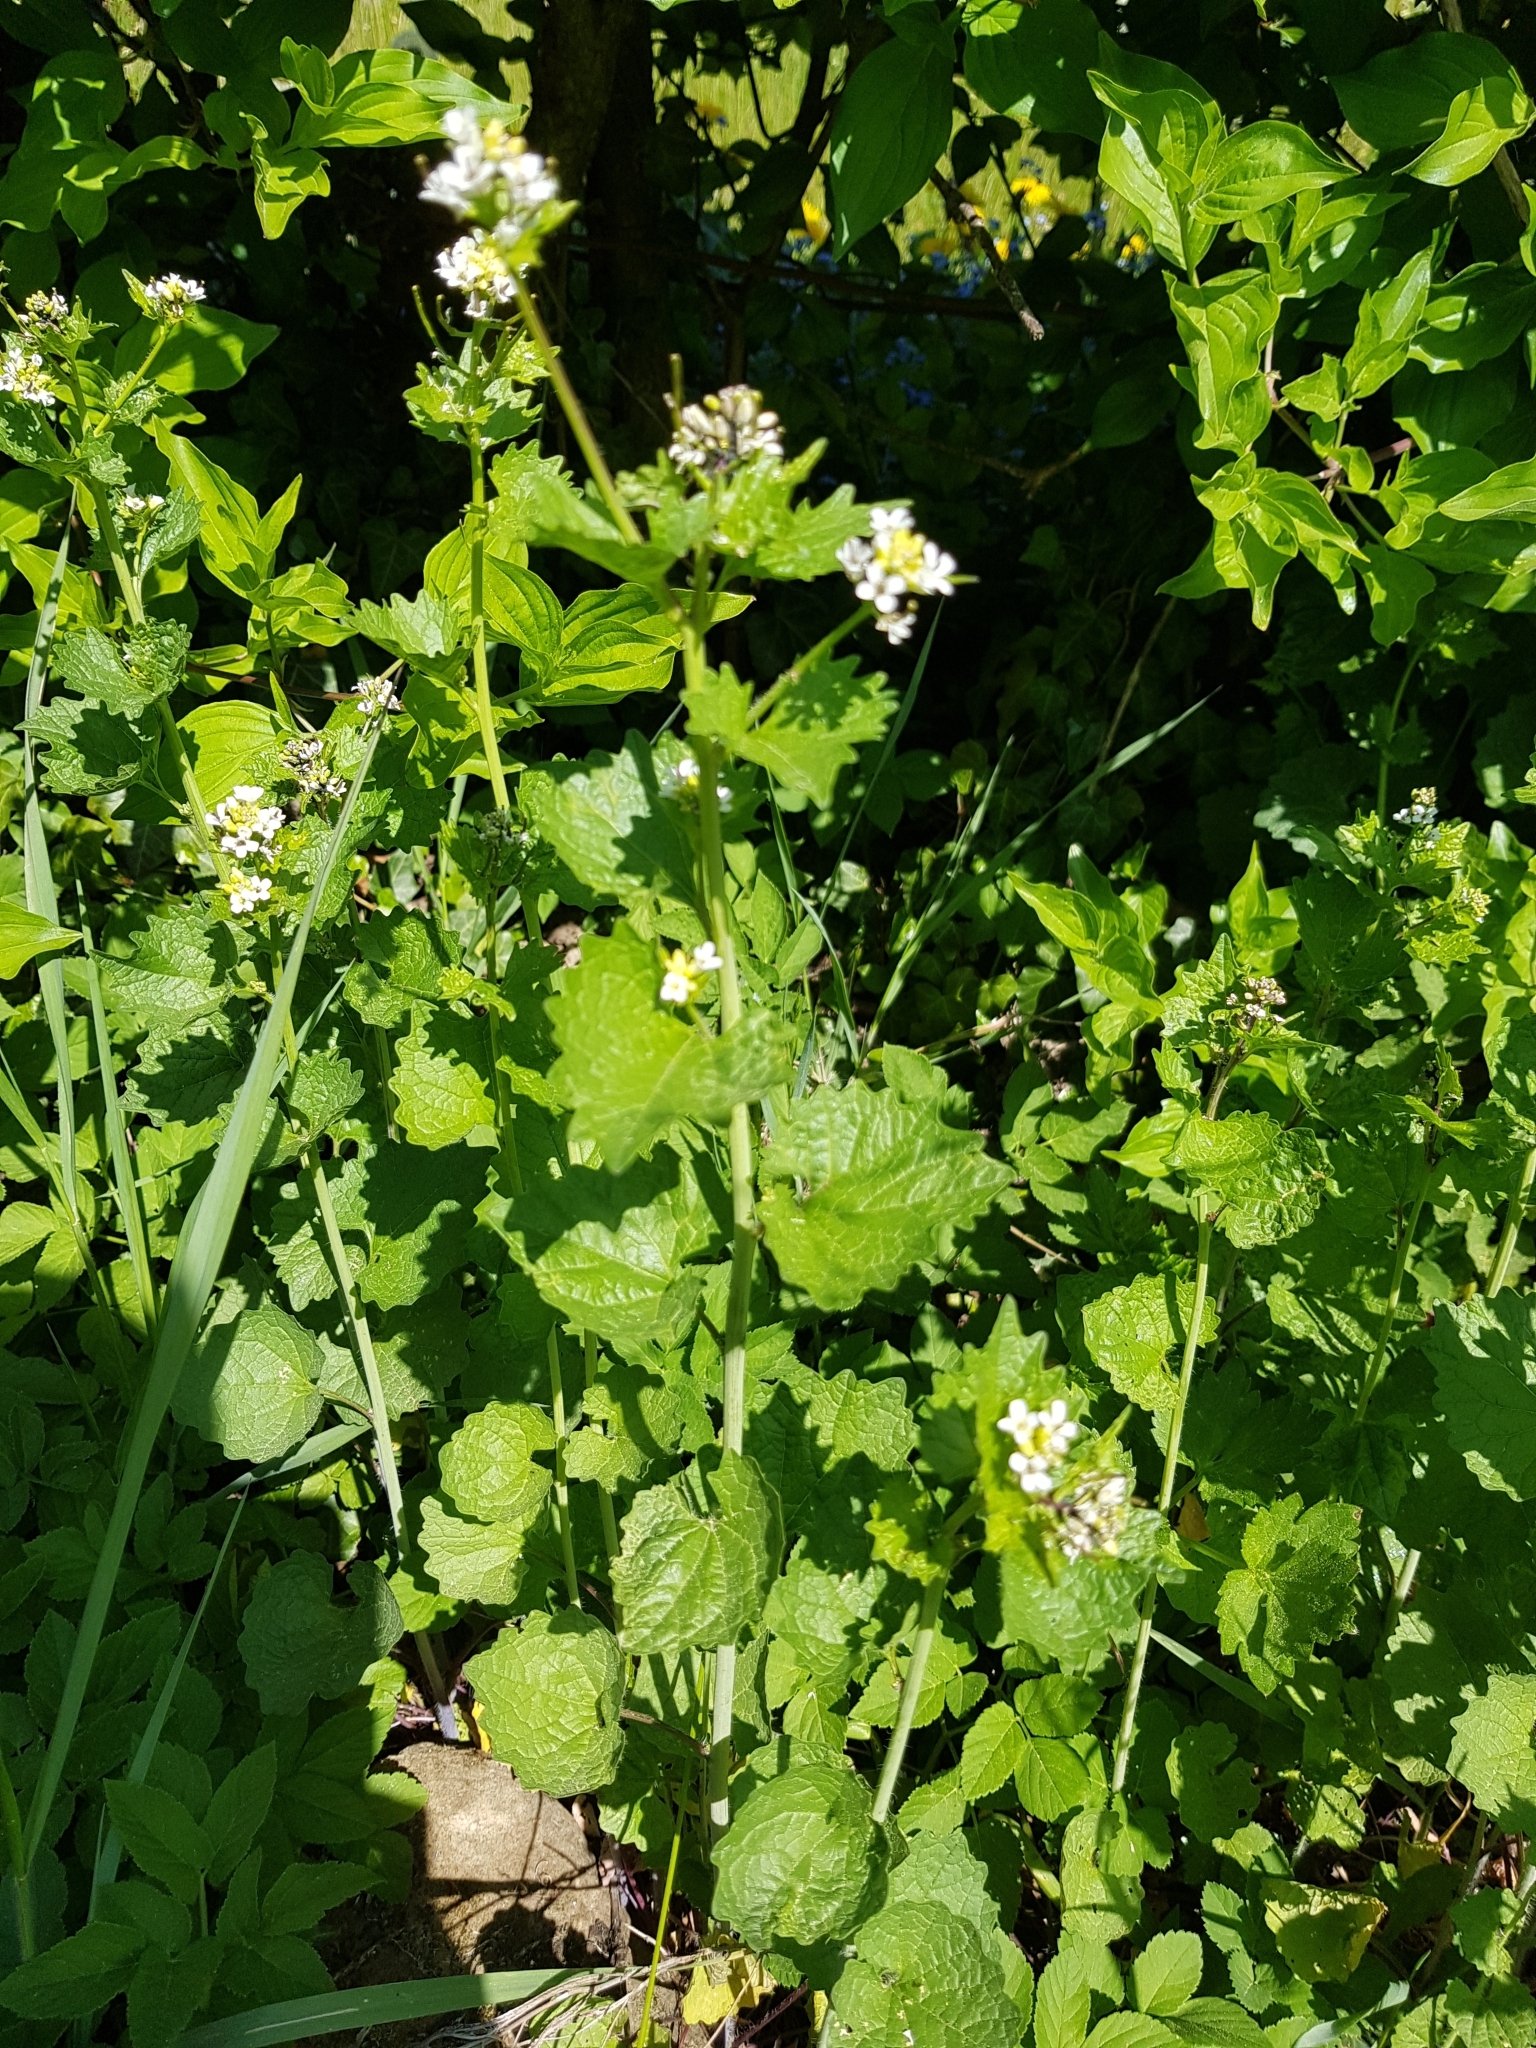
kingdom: Plantae
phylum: Tracheophyta
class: Magnoliopsida
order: Brassicales
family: Brassicaceae
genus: Alliaria
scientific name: Alliaria petiolata
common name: Garlic mustard
